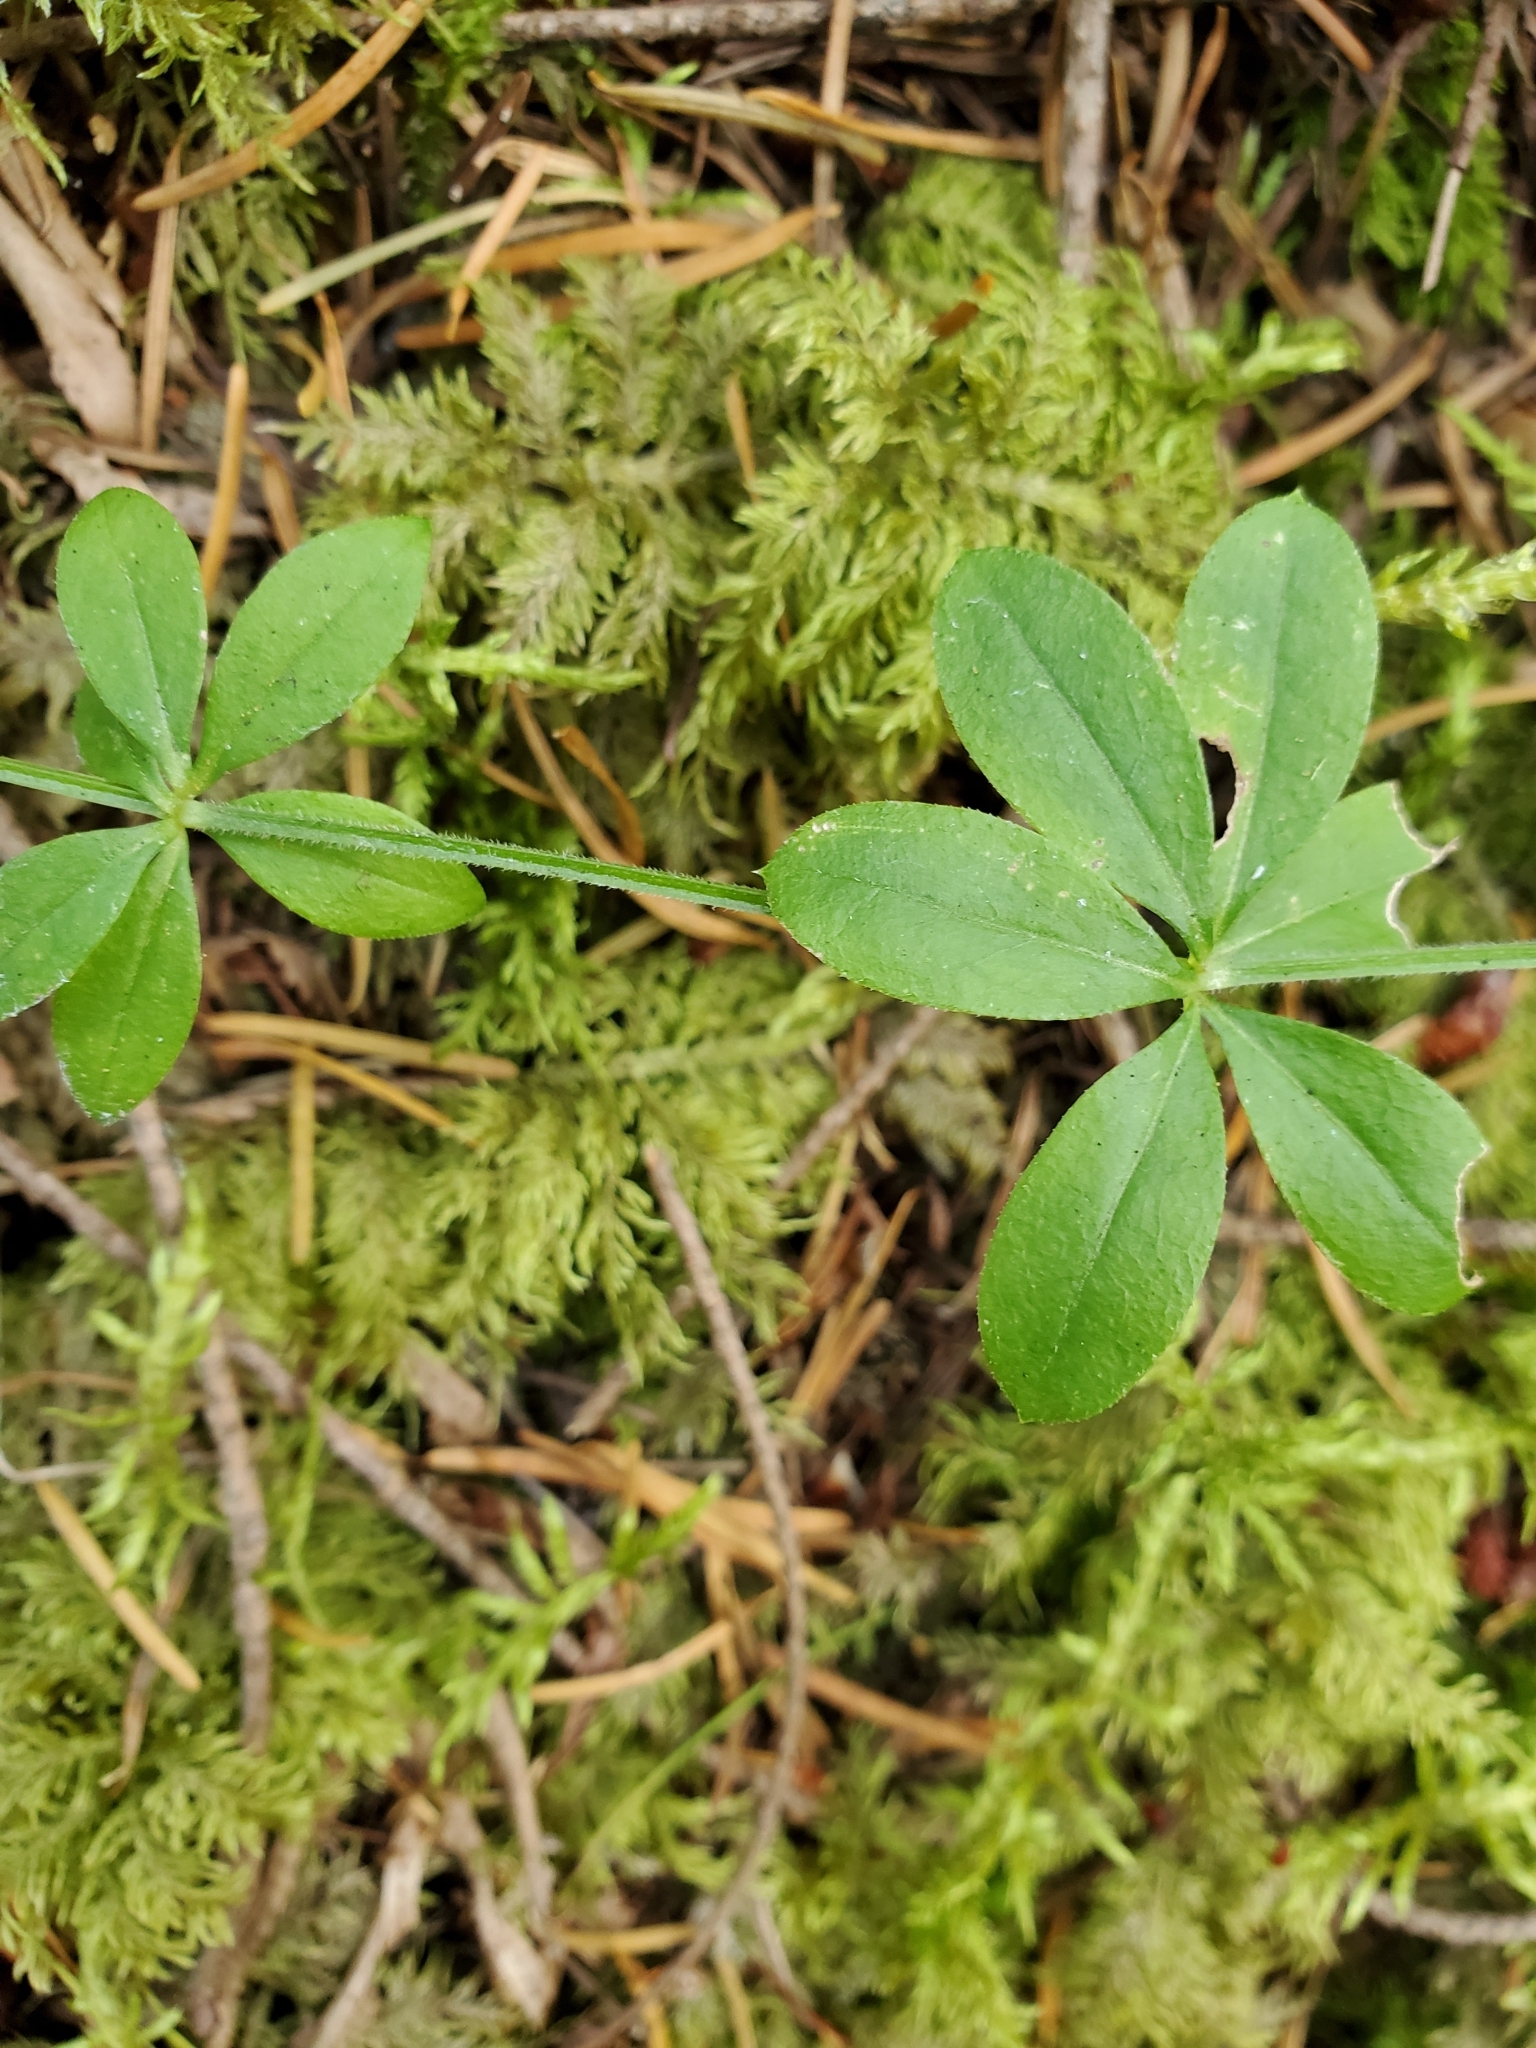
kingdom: Plantae
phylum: Tracheophyta
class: Magnoliopsida
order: Gentianales
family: Rubiaceae
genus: Galium
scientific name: Galium triflorum
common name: Fragrant bedstraw
